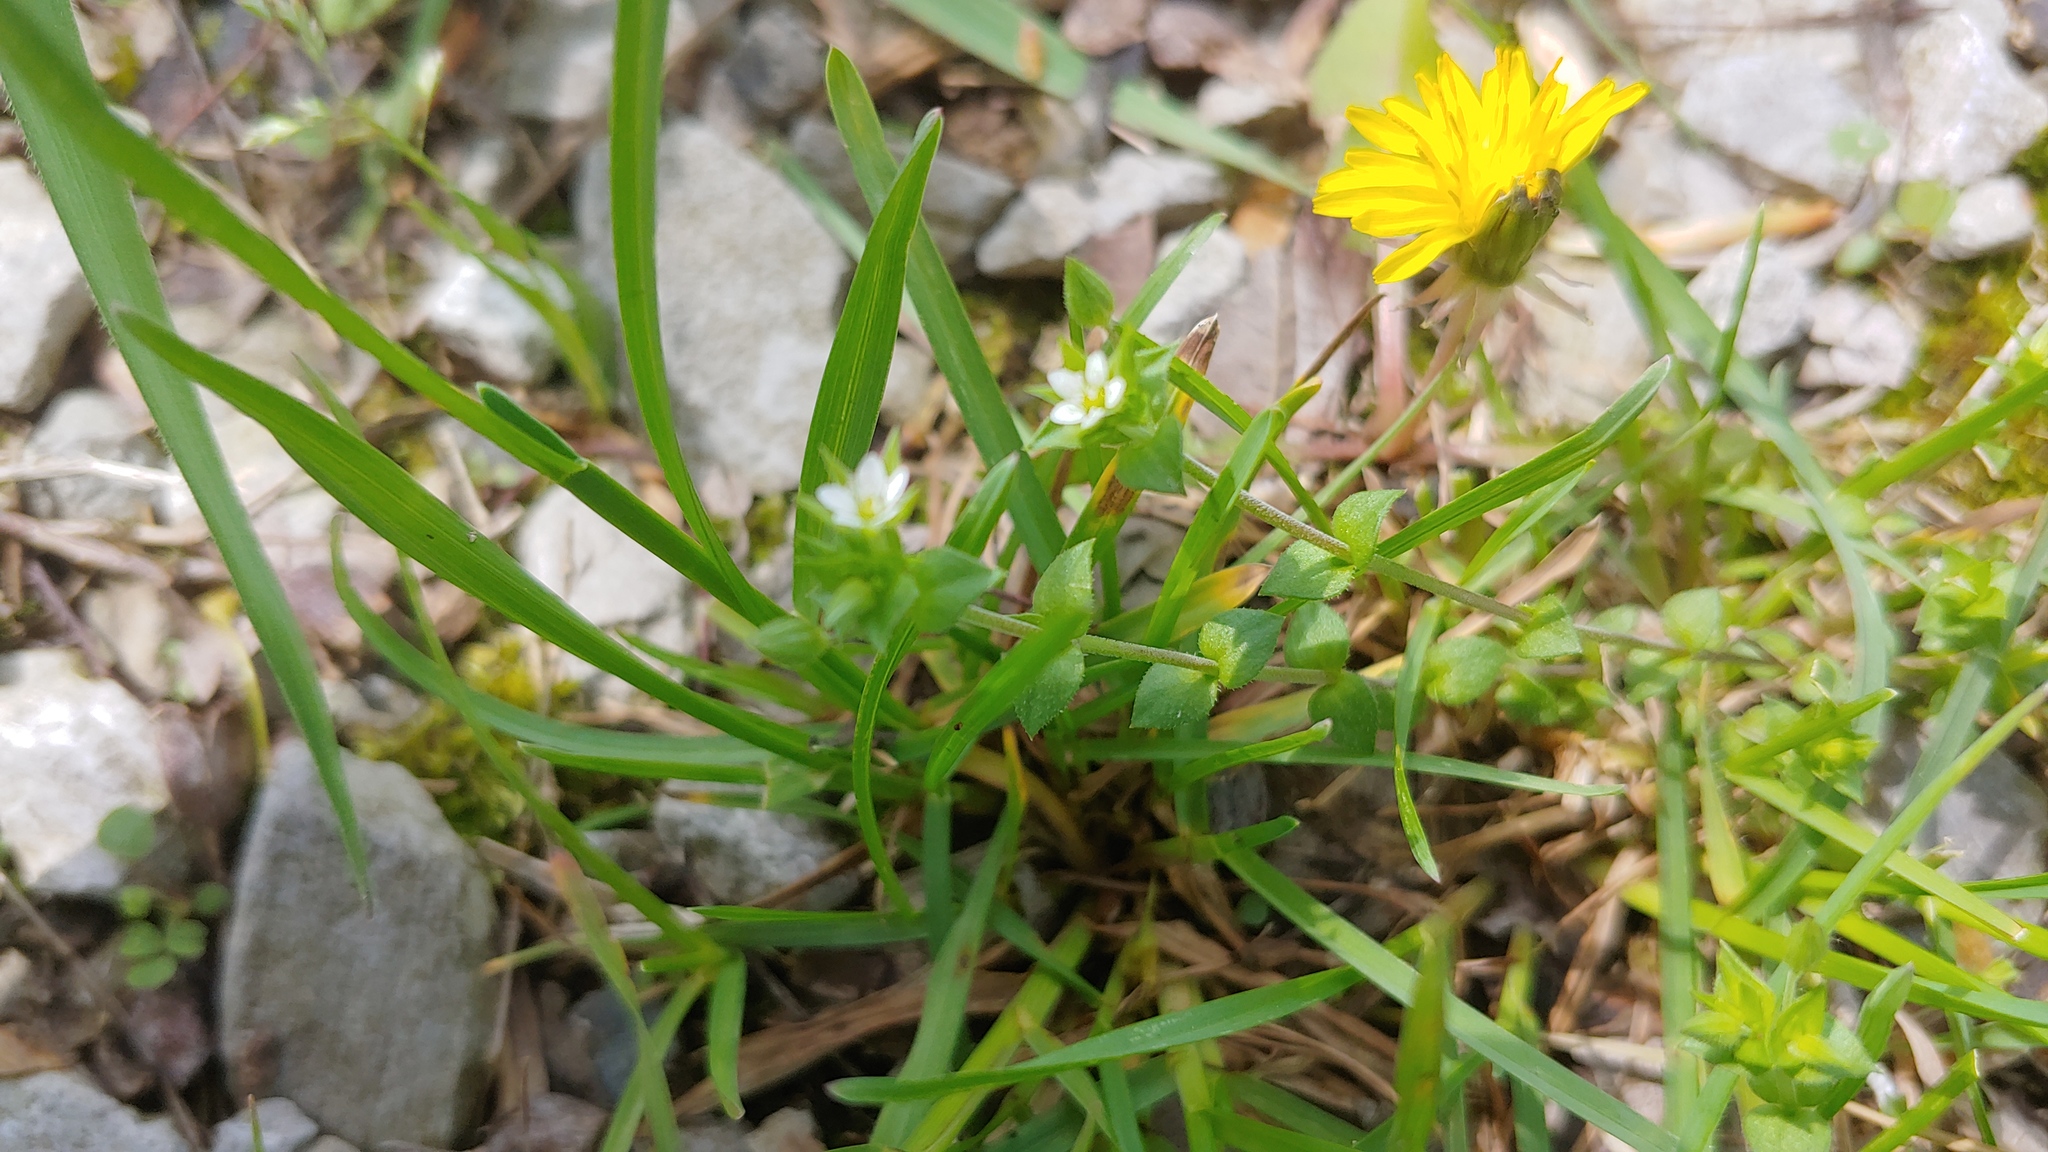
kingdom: Plantae
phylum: Tracheophyta
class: Magnoliopsida
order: Caryophyllales
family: Caryophyllaceae
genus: Arenaria
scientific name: Arenaria serpyllifolia
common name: Thyme-leaved sandwort
